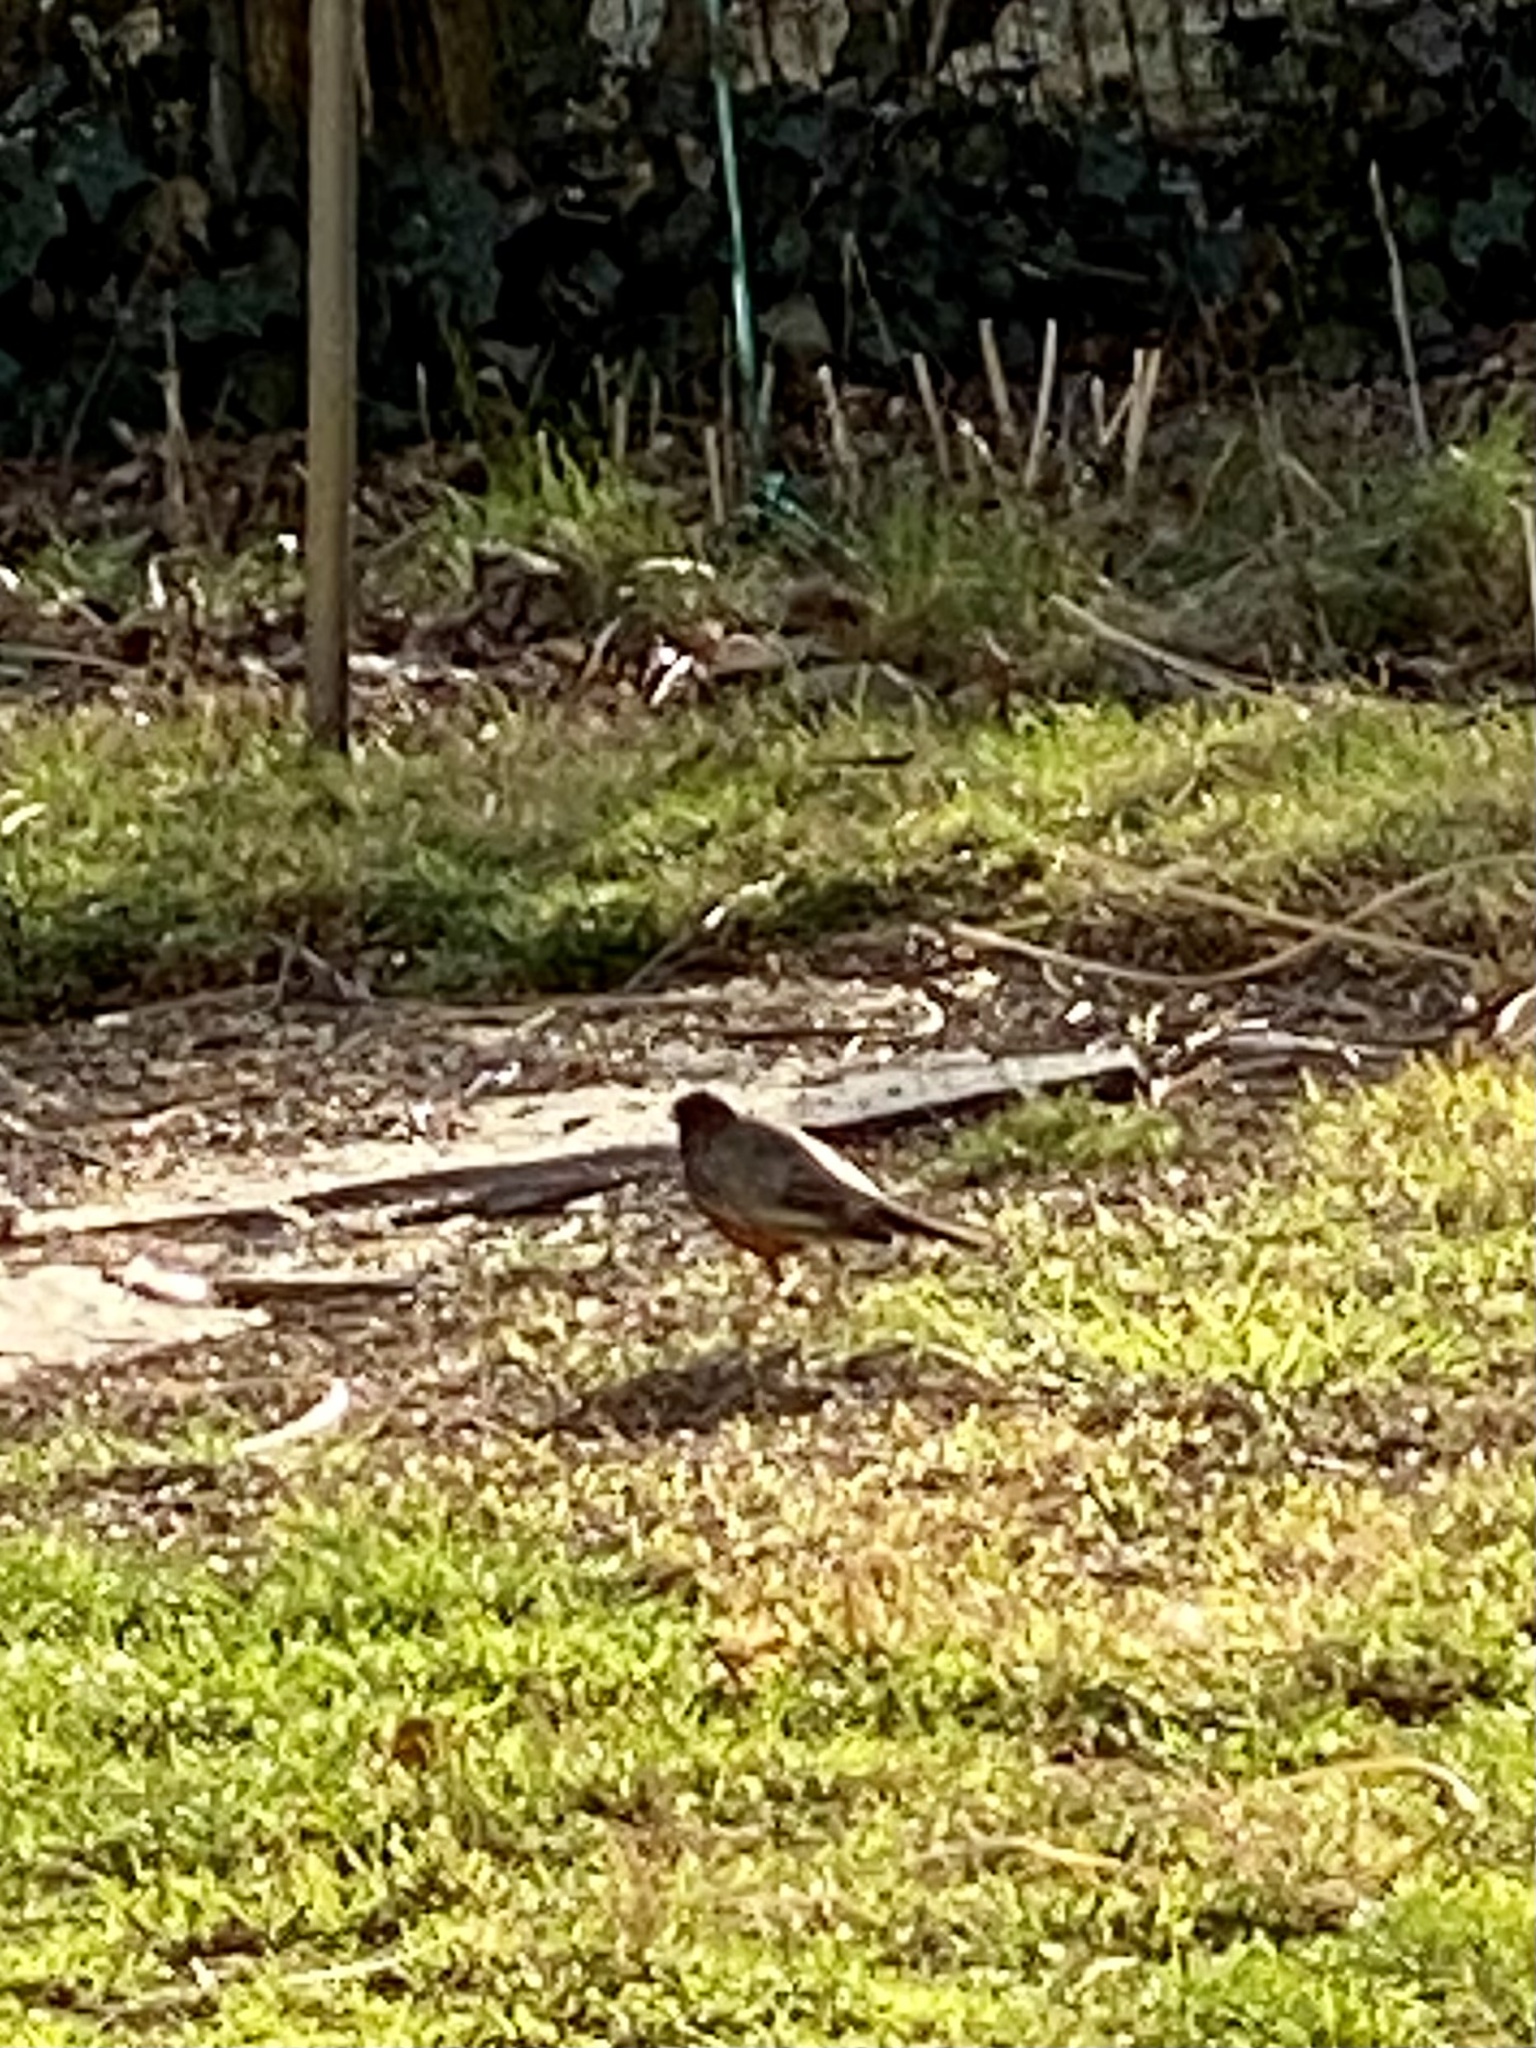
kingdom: Animalia
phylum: Chordata
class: Aves
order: Passeriformes
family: Turdidae
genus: Turdus
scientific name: Turdus migratorius
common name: American robin
